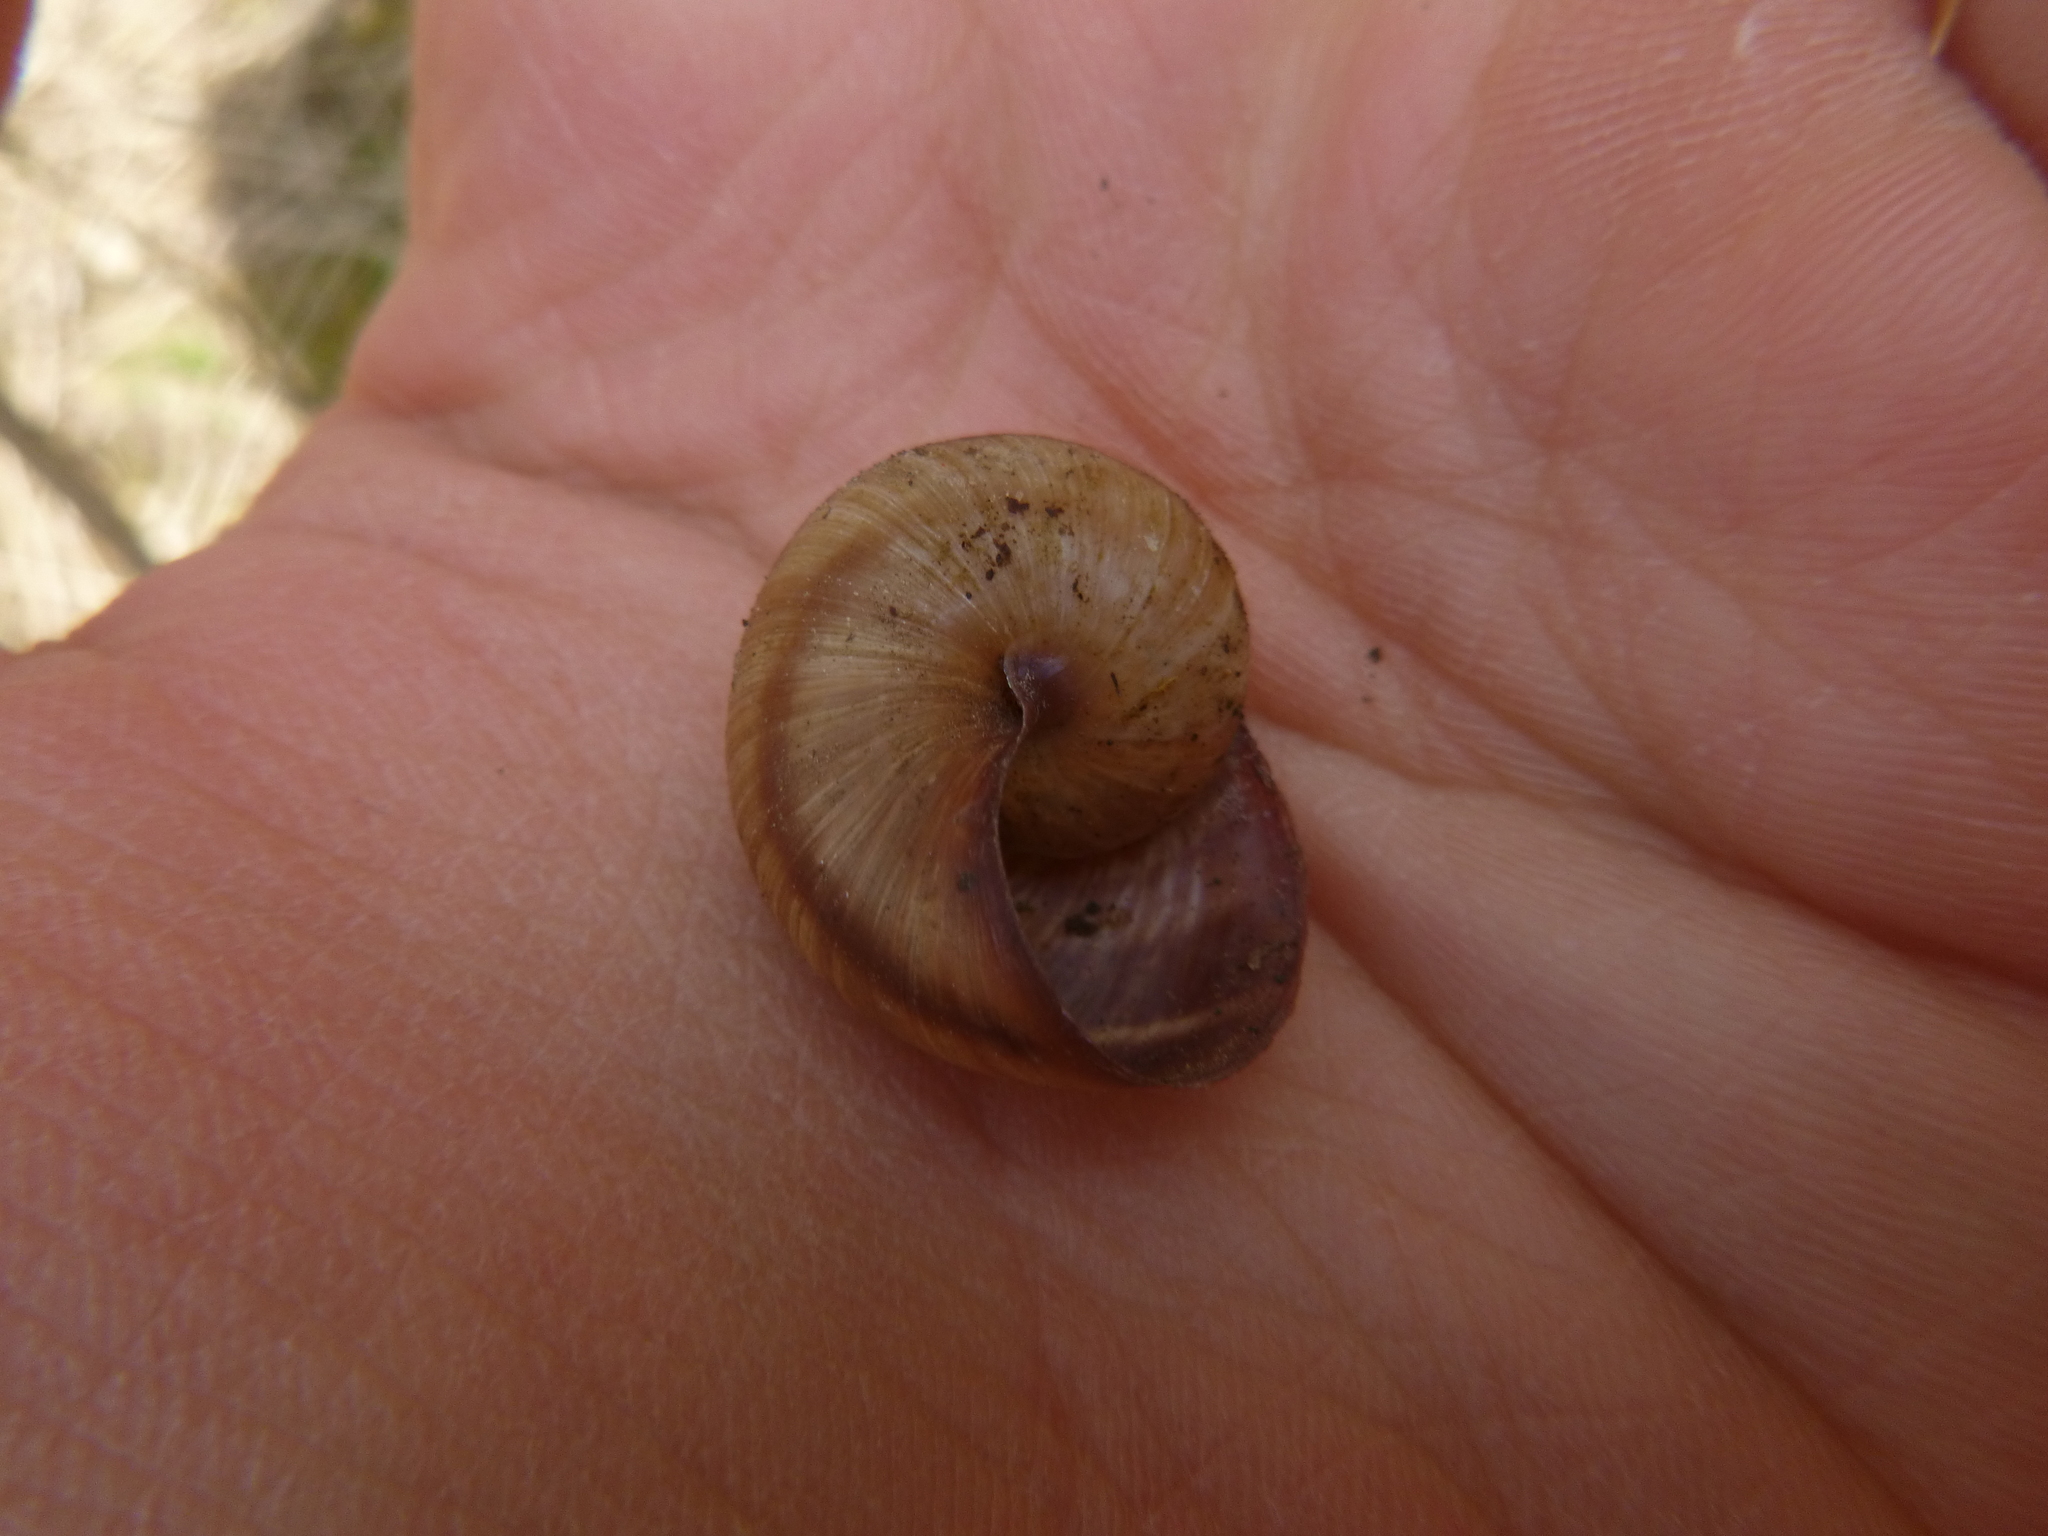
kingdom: Animalia
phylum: Mollusca
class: Gastropoda
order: Stylommatophora
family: Helicidae
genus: Helix
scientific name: Helix pomatia
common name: Roman snail
